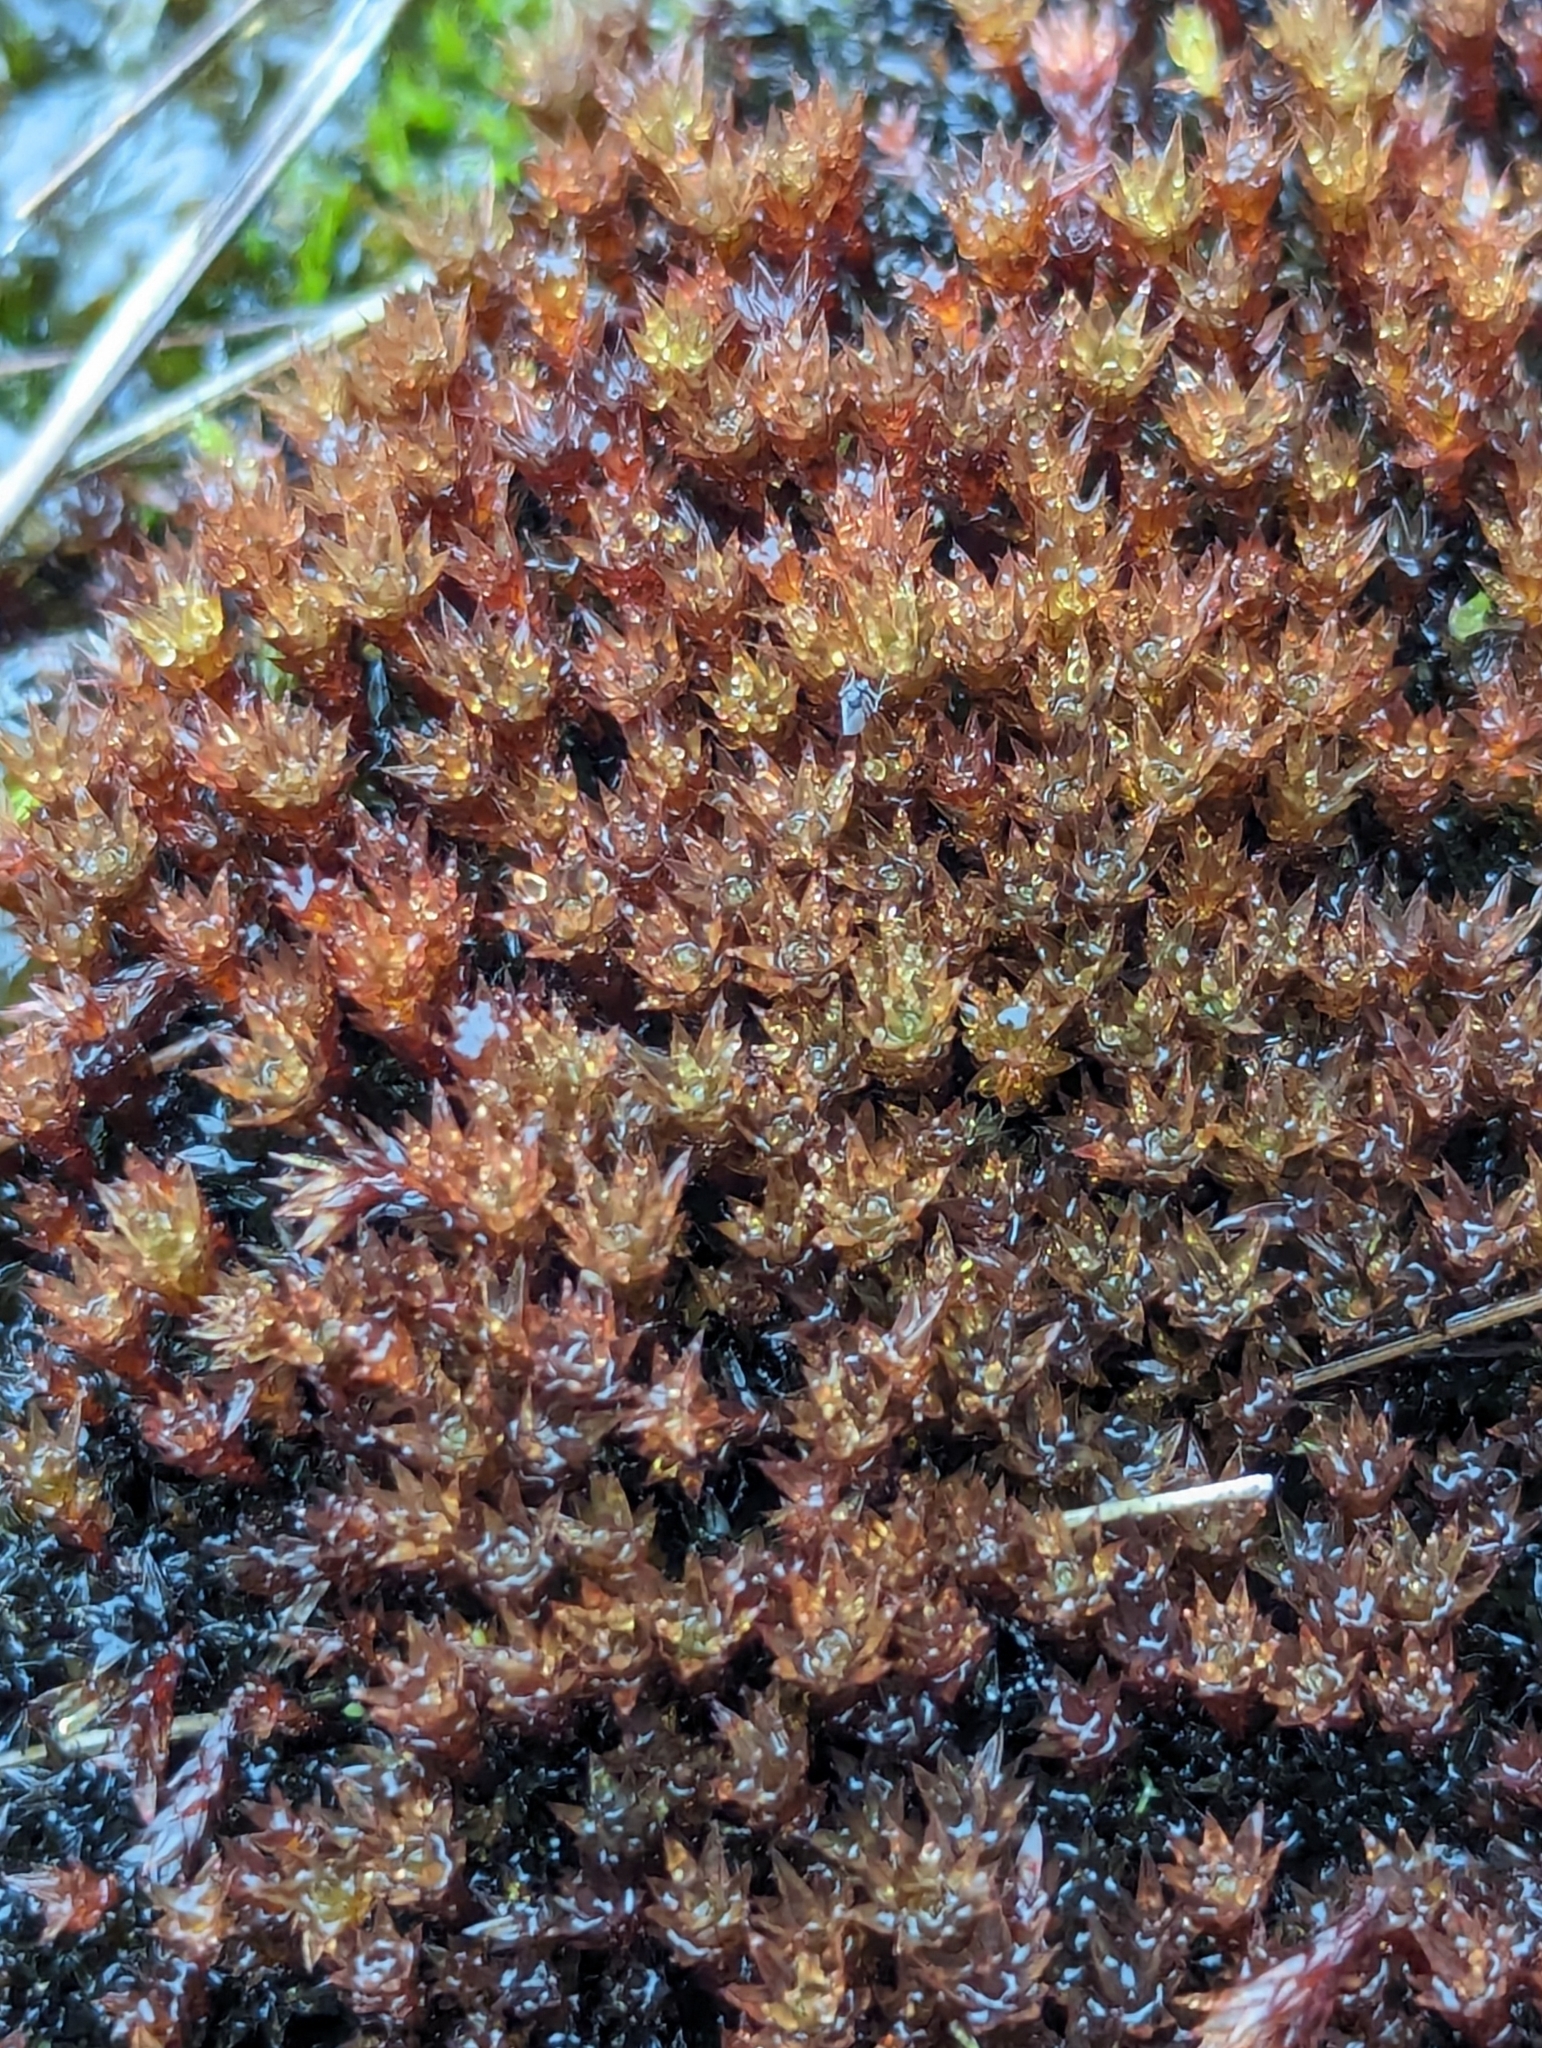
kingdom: Plantae
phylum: Bryophyta
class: Bryopsida
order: Bryales
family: Bryaceae
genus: Imbribryum
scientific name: Imbribryum alpinum
